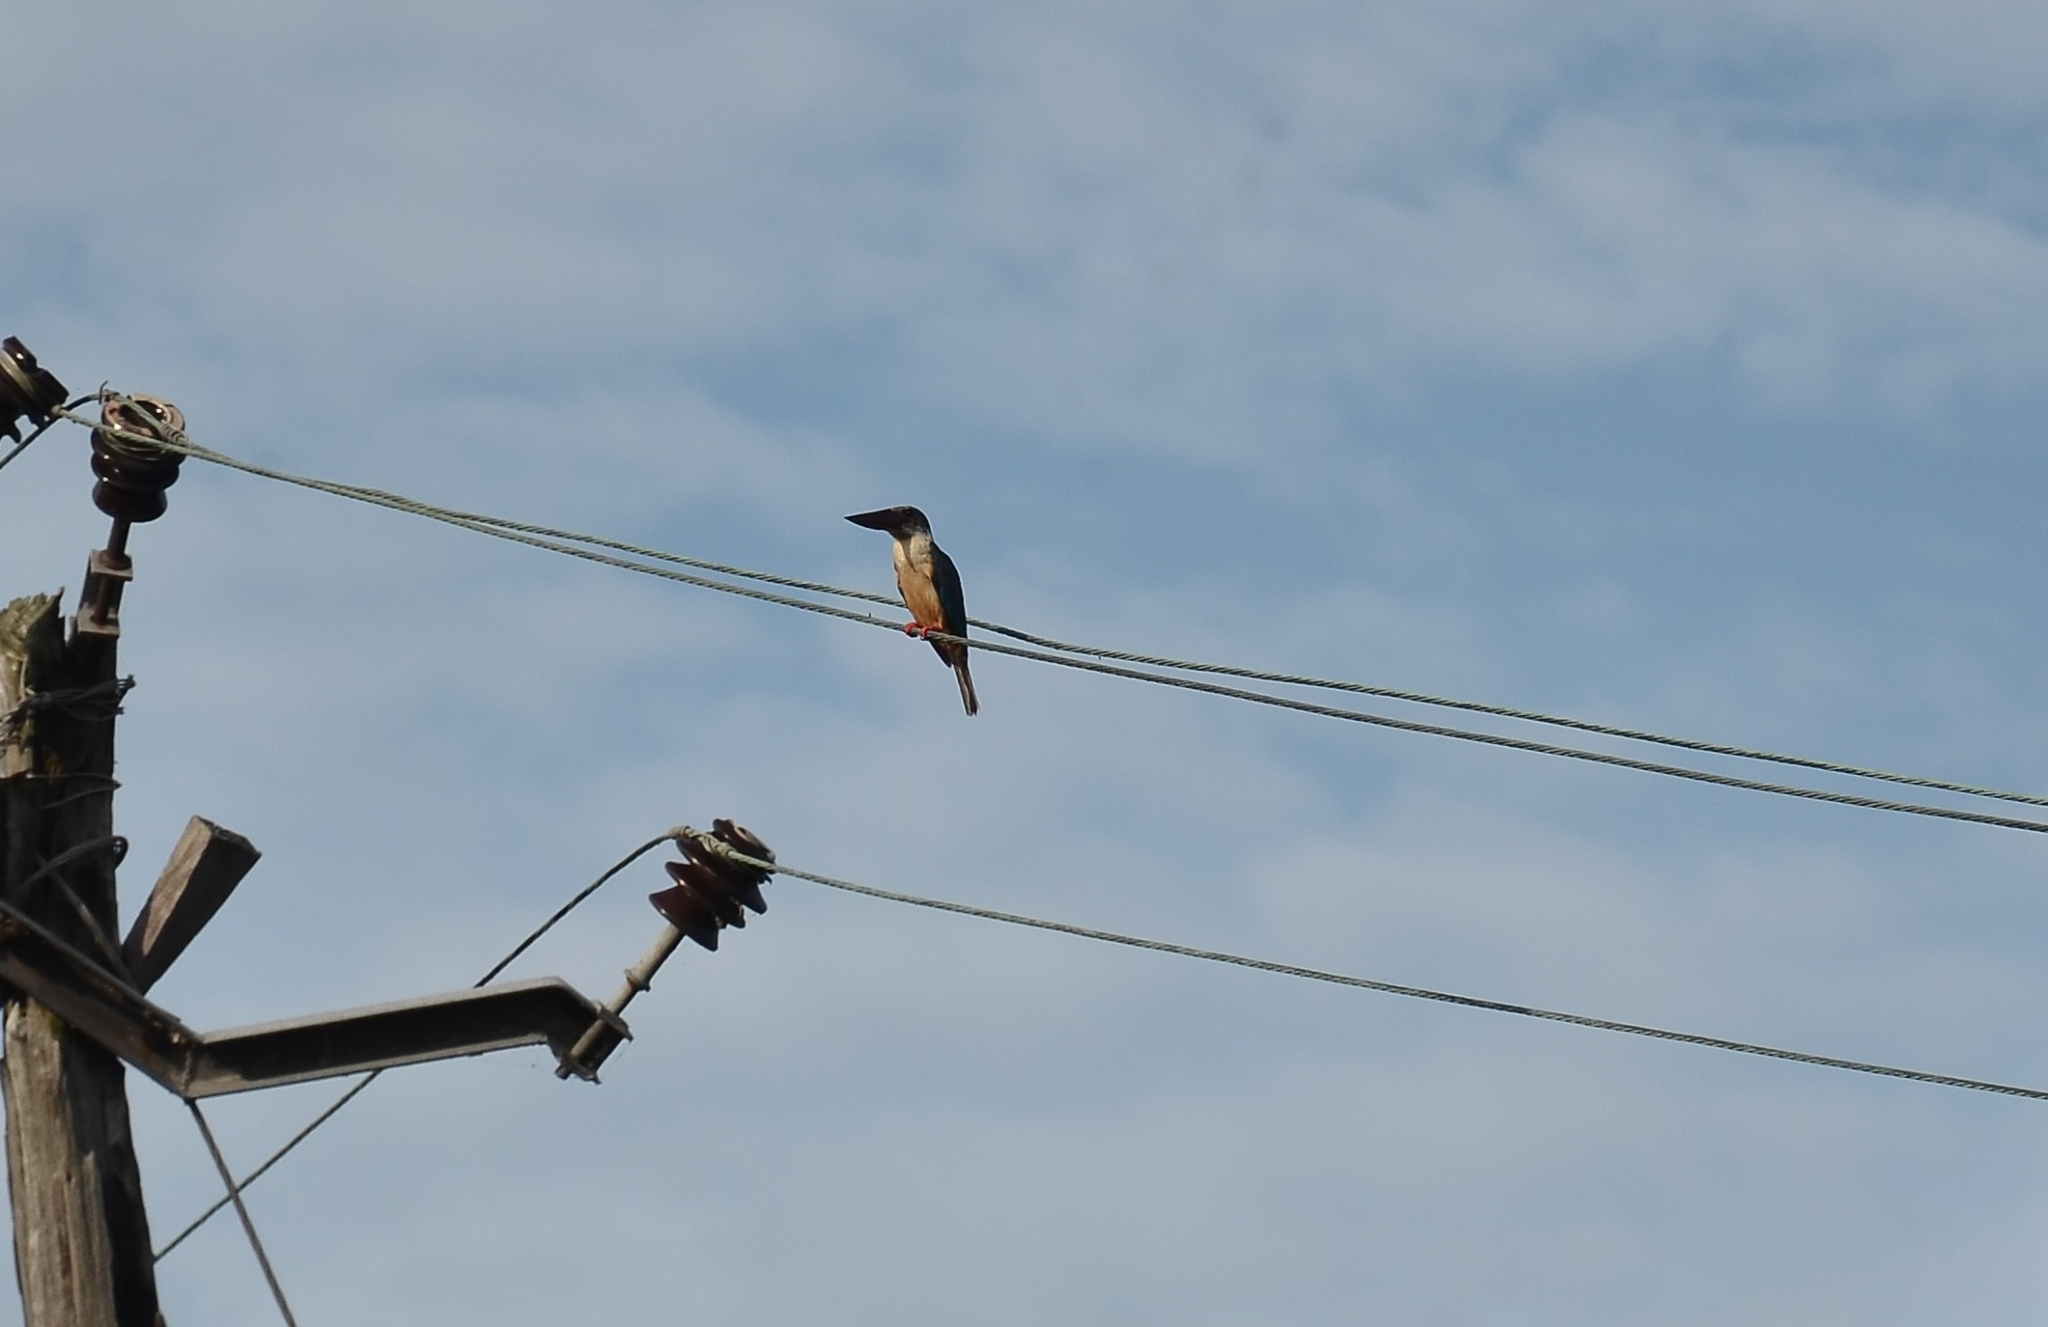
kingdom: Animalia
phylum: Chordata
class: Aves
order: Coraciiformes
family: Alcedinidae
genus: Pelargopsis
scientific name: Pelargopsis capensis
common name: Stork-billed kingfisher
